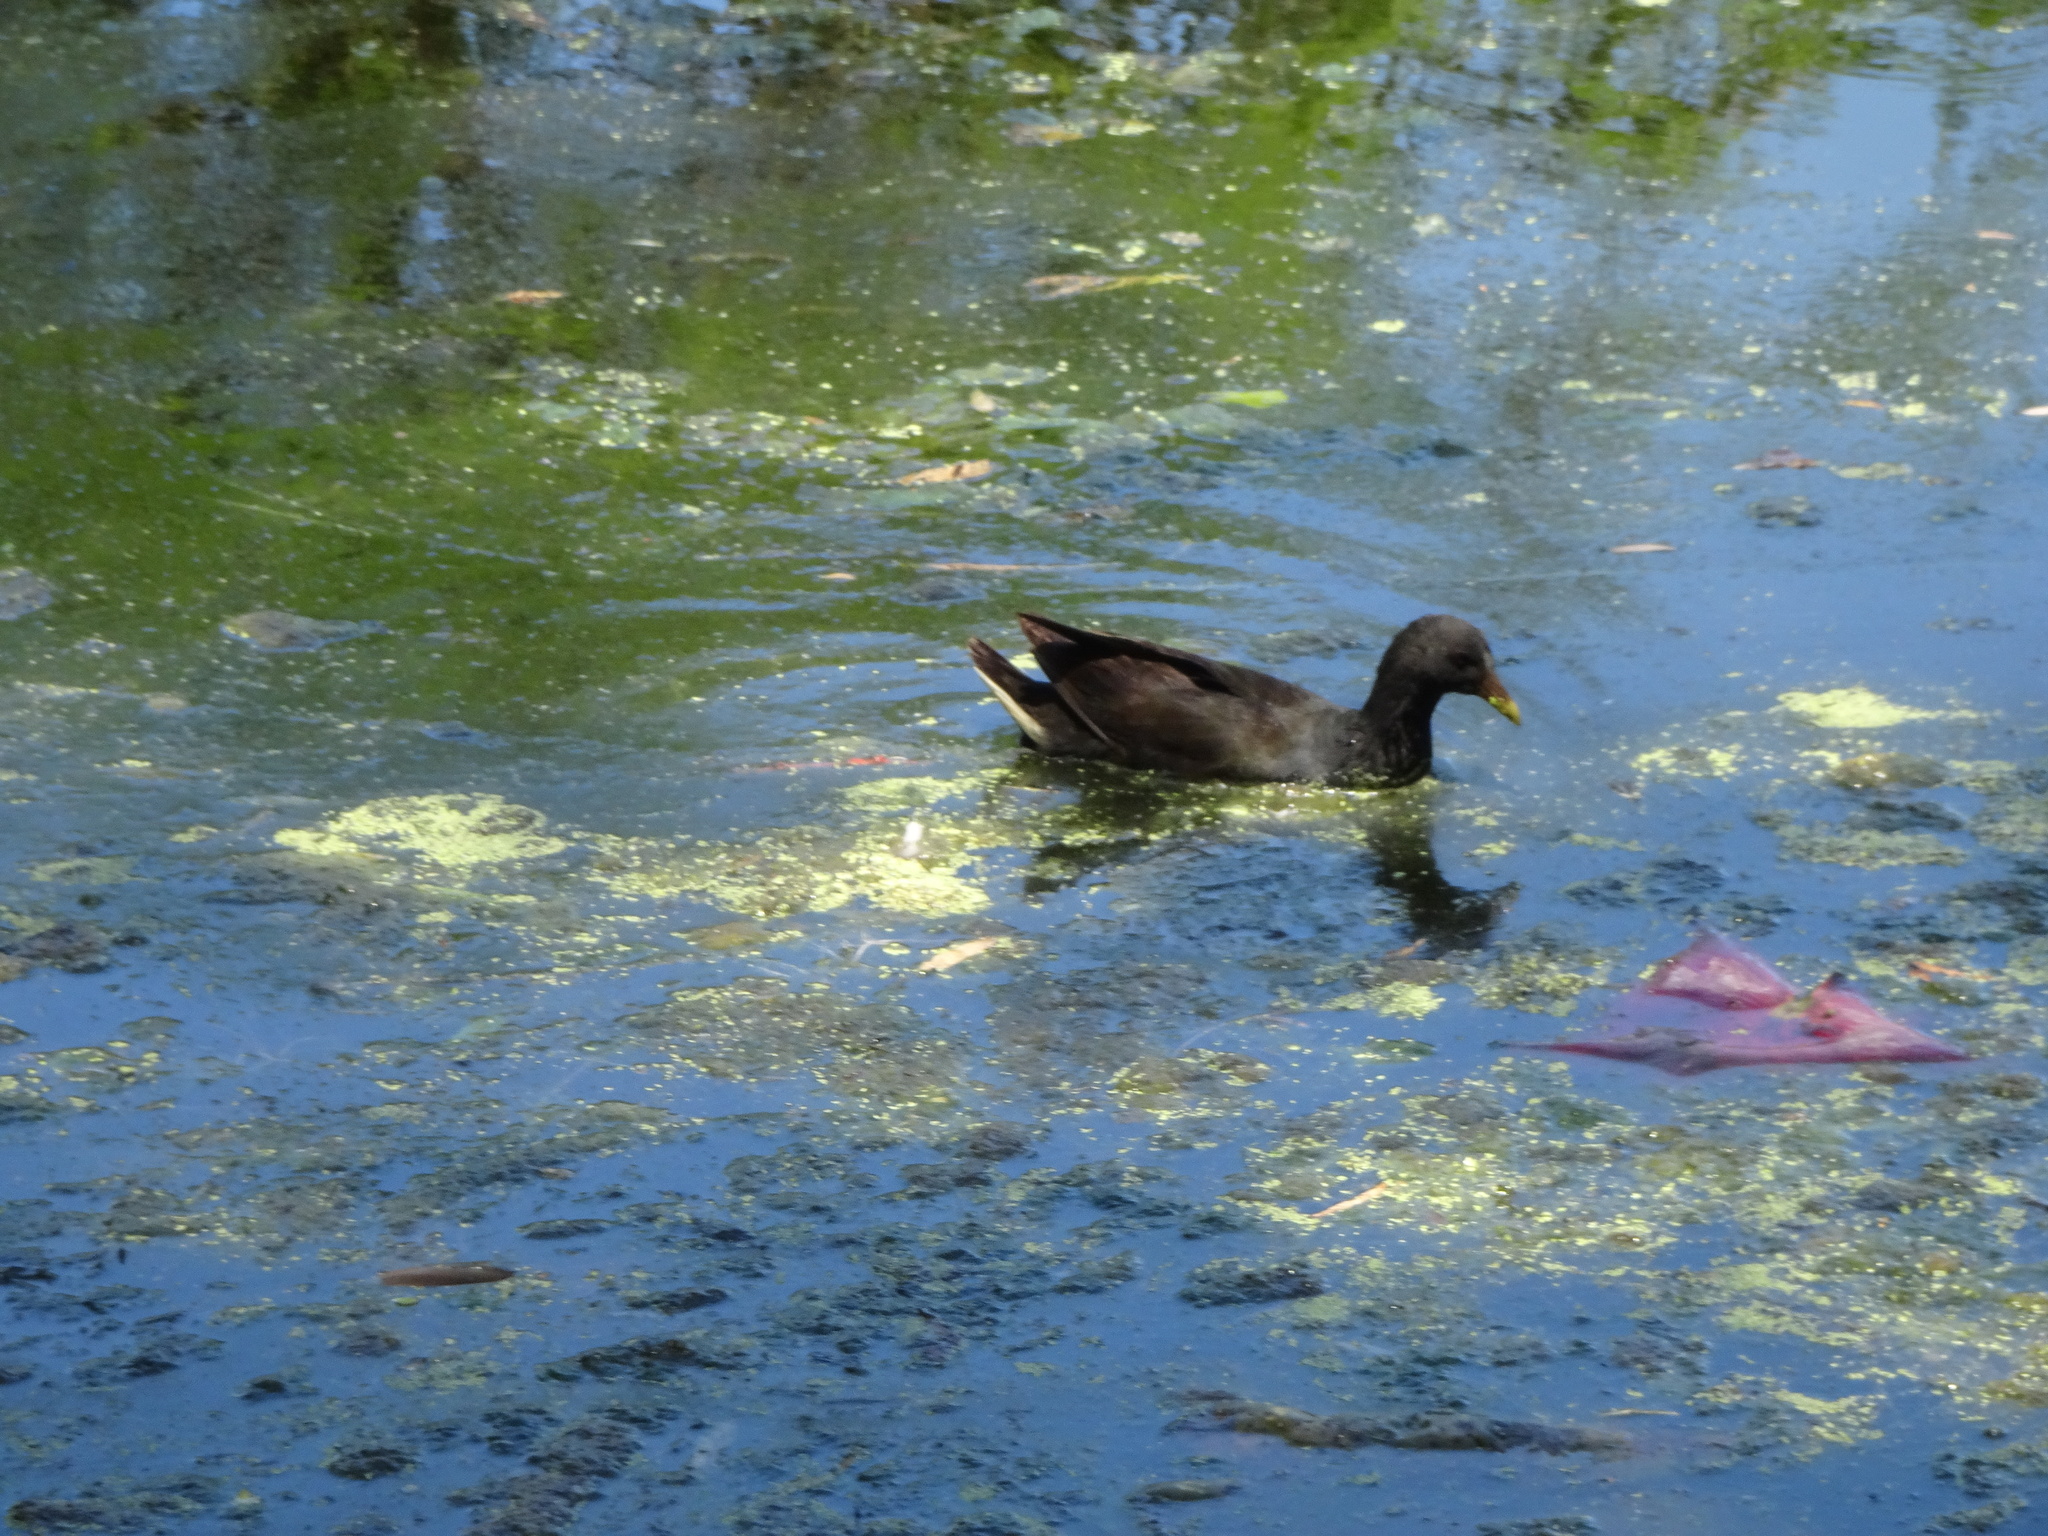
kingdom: Animalia
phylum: Chordata
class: Aves
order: Gruiformes
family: Rallidae
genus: Gallinula
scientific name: Gallinula tenebrosa
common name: Dusky moorhen
